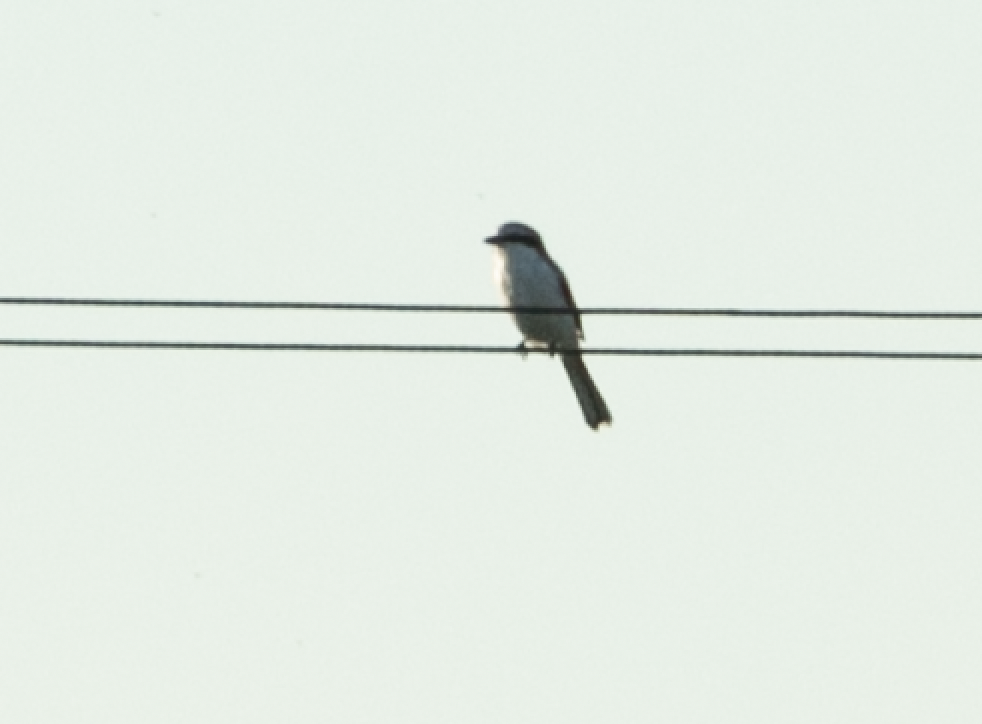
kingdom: Animalia
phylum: Chordata
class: Aves
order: Passeriformes
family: Laniidae
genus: Lanius
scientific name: Lanius excubitor
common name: Great grey shrike
